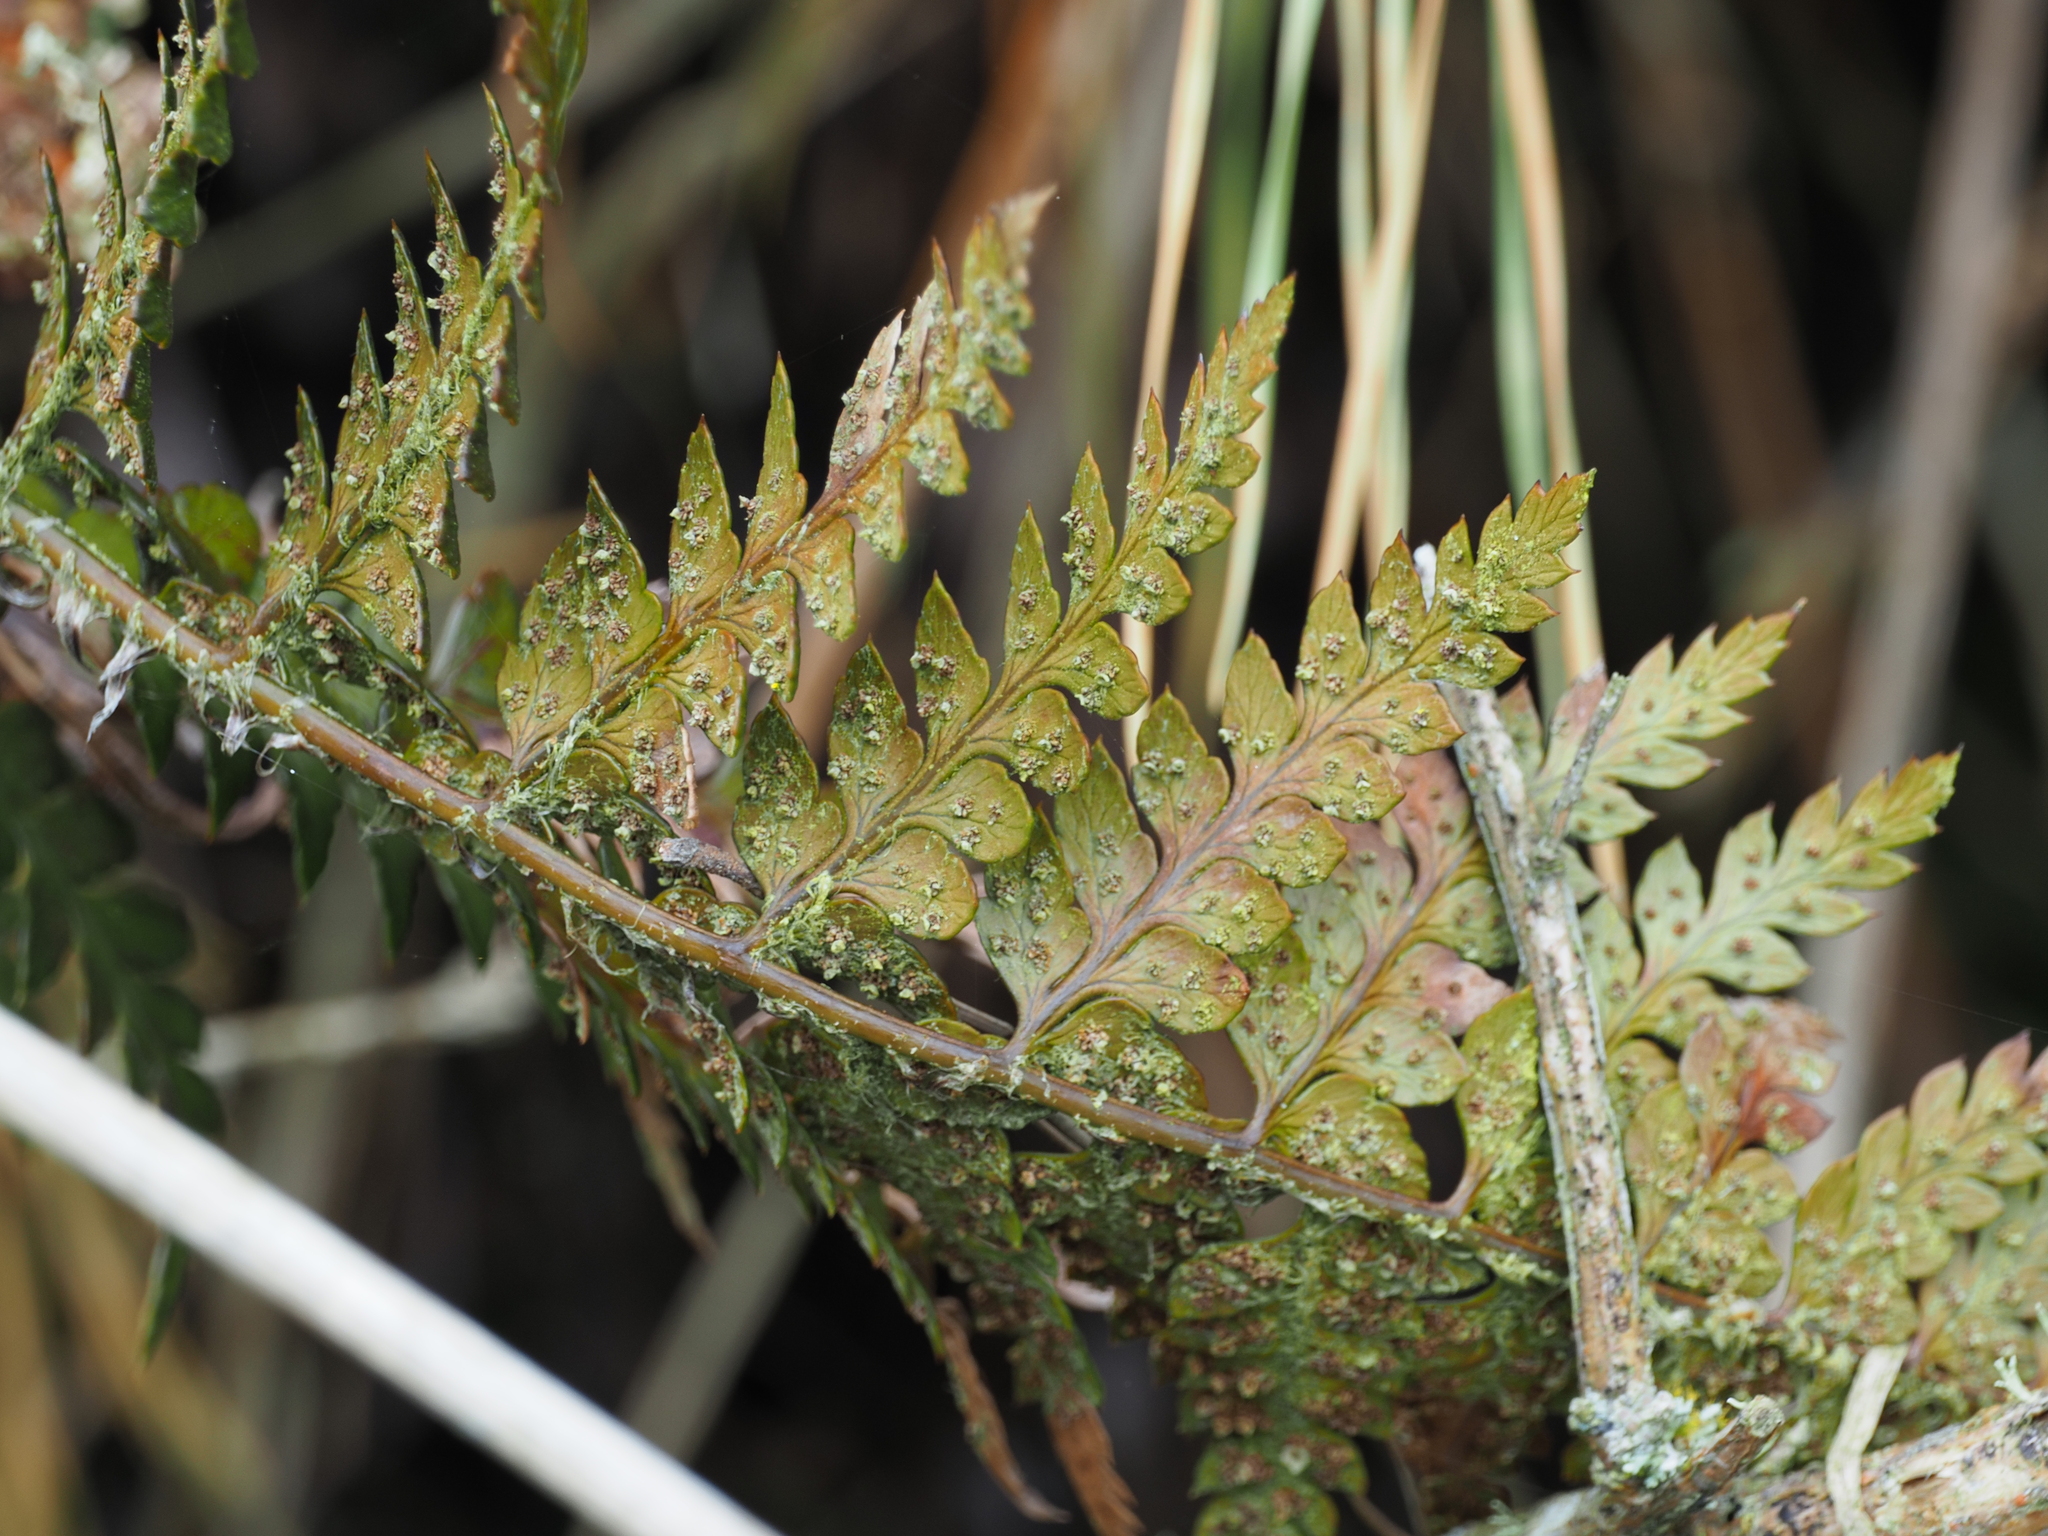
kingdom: Plantae
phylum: Tracheophyta
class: Polypodiopsida
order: Polypodiales
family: Dryopteridaceae
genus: Polystichum
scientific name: Polystichum oculatum
